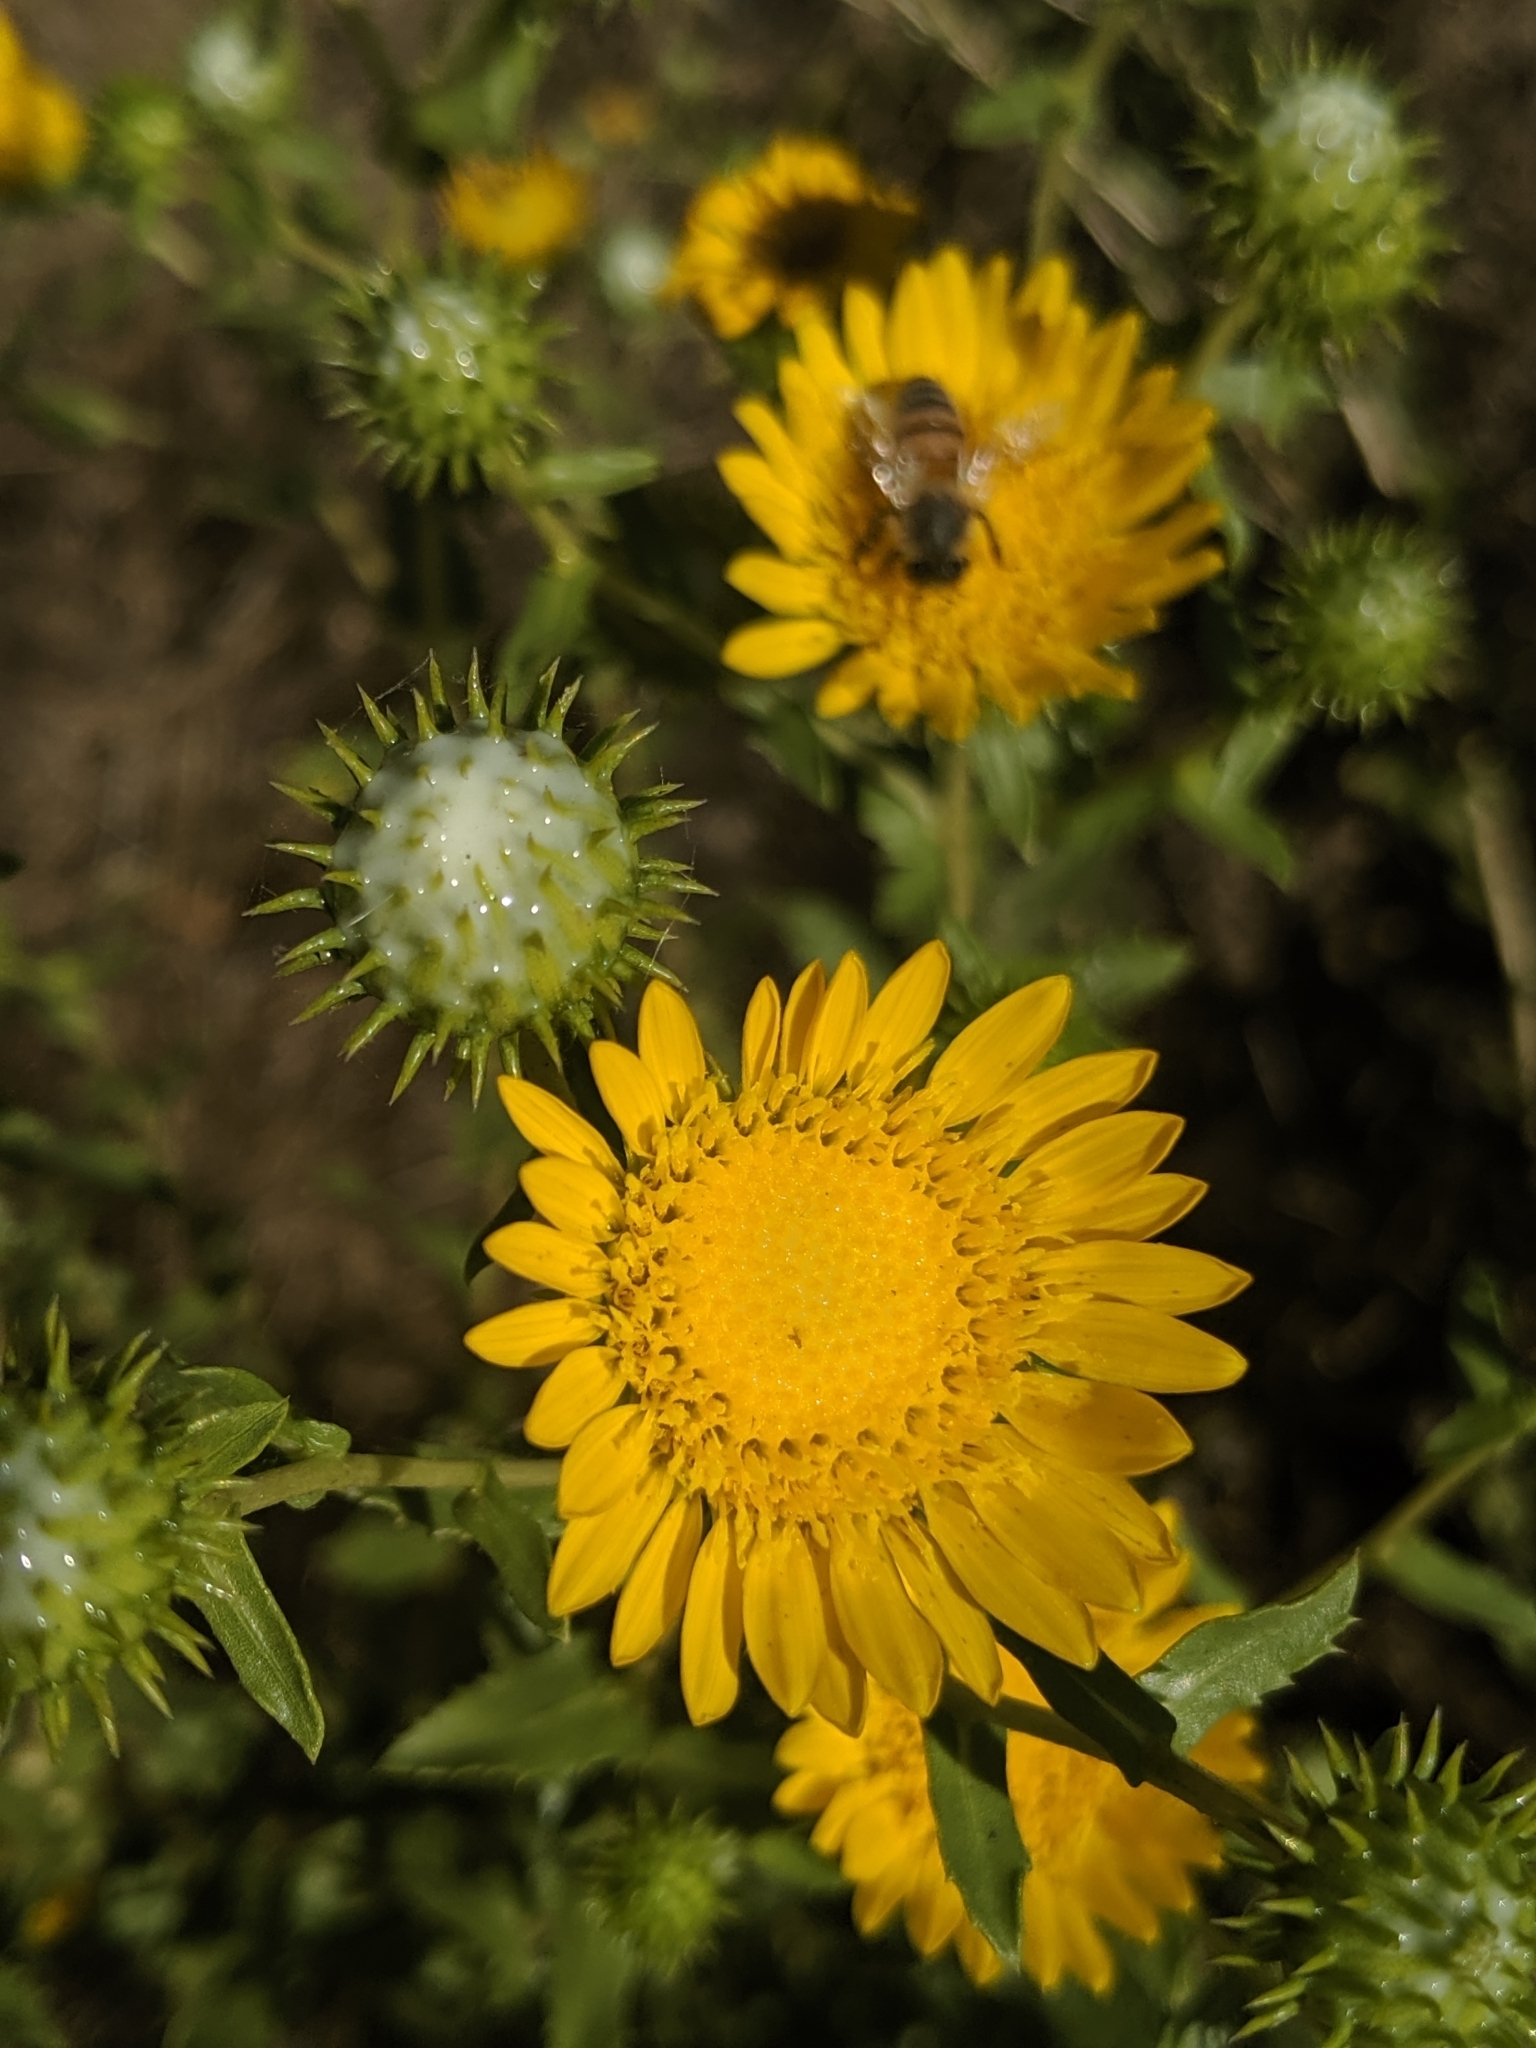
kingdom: Plantae
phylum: Tracheophyta
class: Magnoliopsida
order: Asterales
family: Asteraceae
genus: Grindelia
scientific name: Grindelia hirsutula
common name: Hairy gumweed
